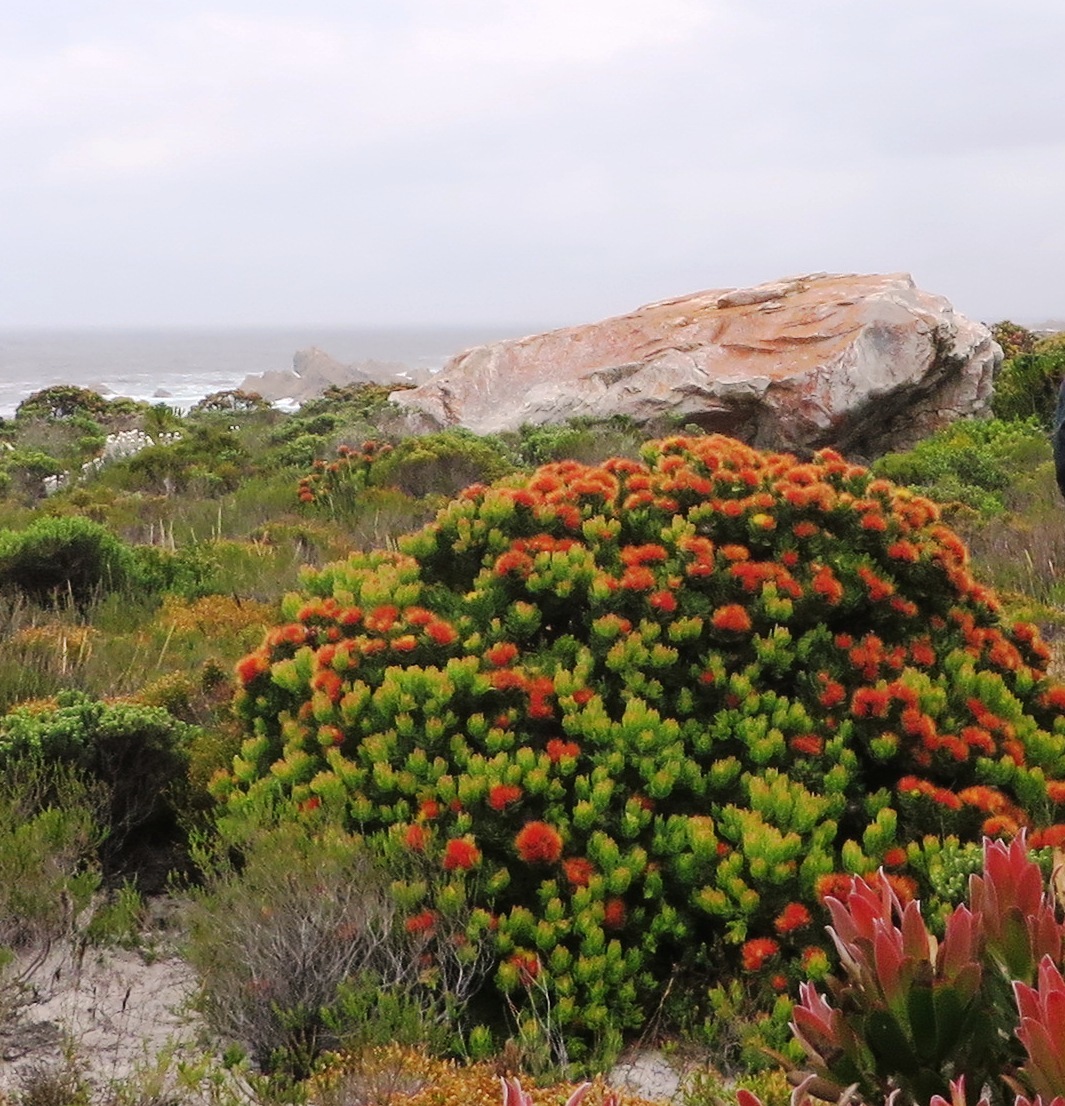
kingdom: Plantae
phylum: Tracheophyta
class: Magnoliopsida
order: Proteales
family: Proteaceae
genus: Leucospermum
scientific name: Leucospermum oleifolium
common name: Matches
